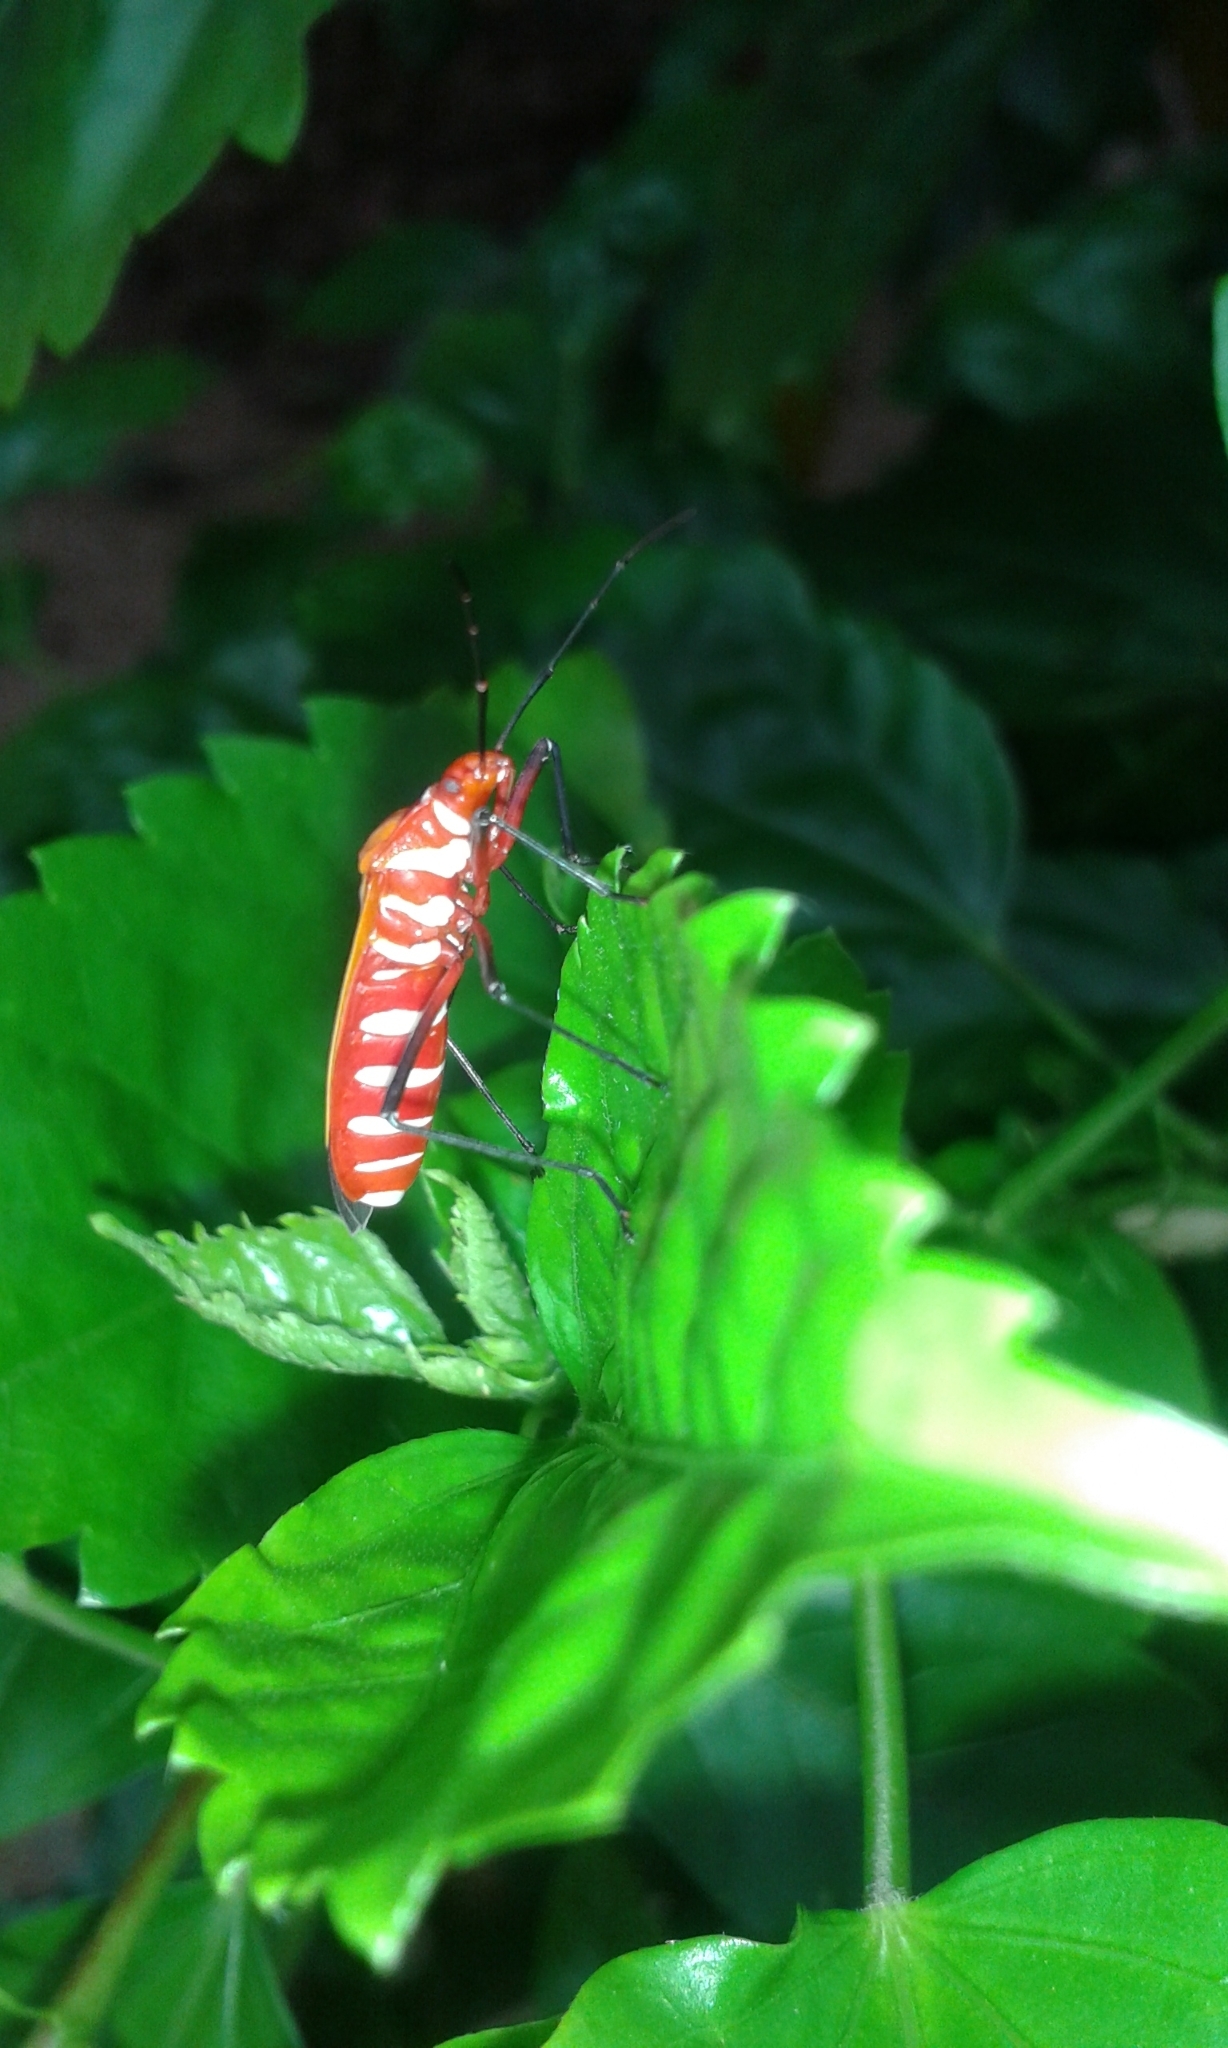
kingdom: Animalia
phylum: Arthropoda
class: Insecta
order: Hemiptera
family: Pyrrhocoridae
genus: Dysdercus
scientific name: Dysdercus cingulatus
